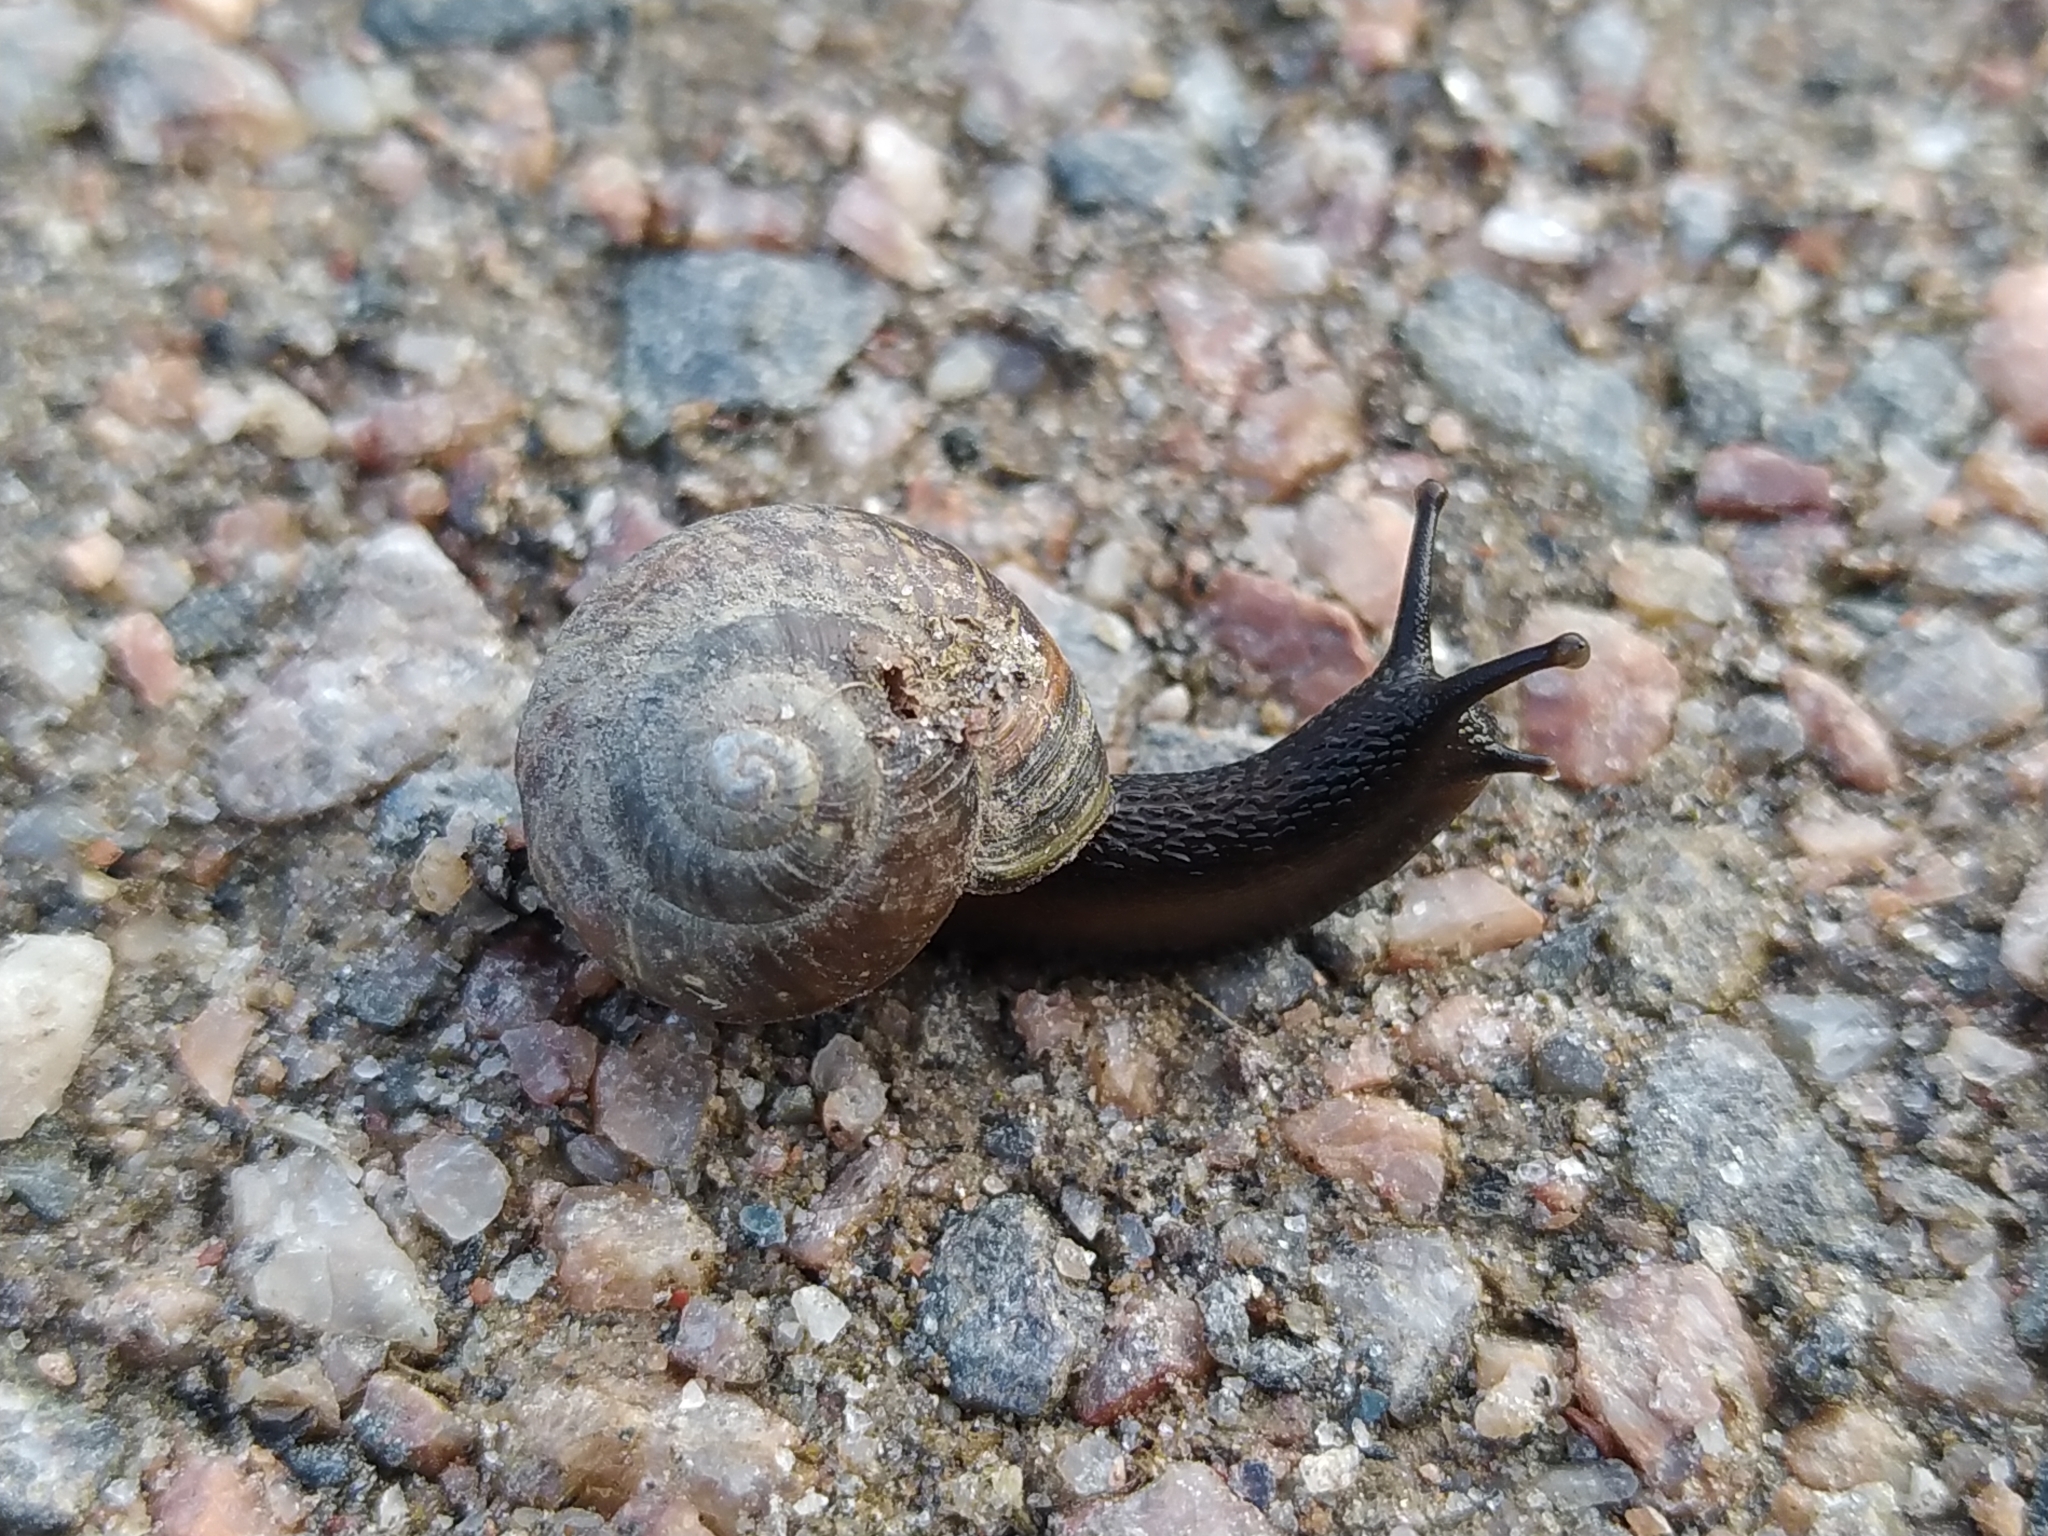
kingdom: Animalia
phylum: Mollusca
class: Gastropoda
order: Stylommatophora
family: Helicidae
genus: Arianta
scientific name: Arianta arbustorum
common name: Copse snail
